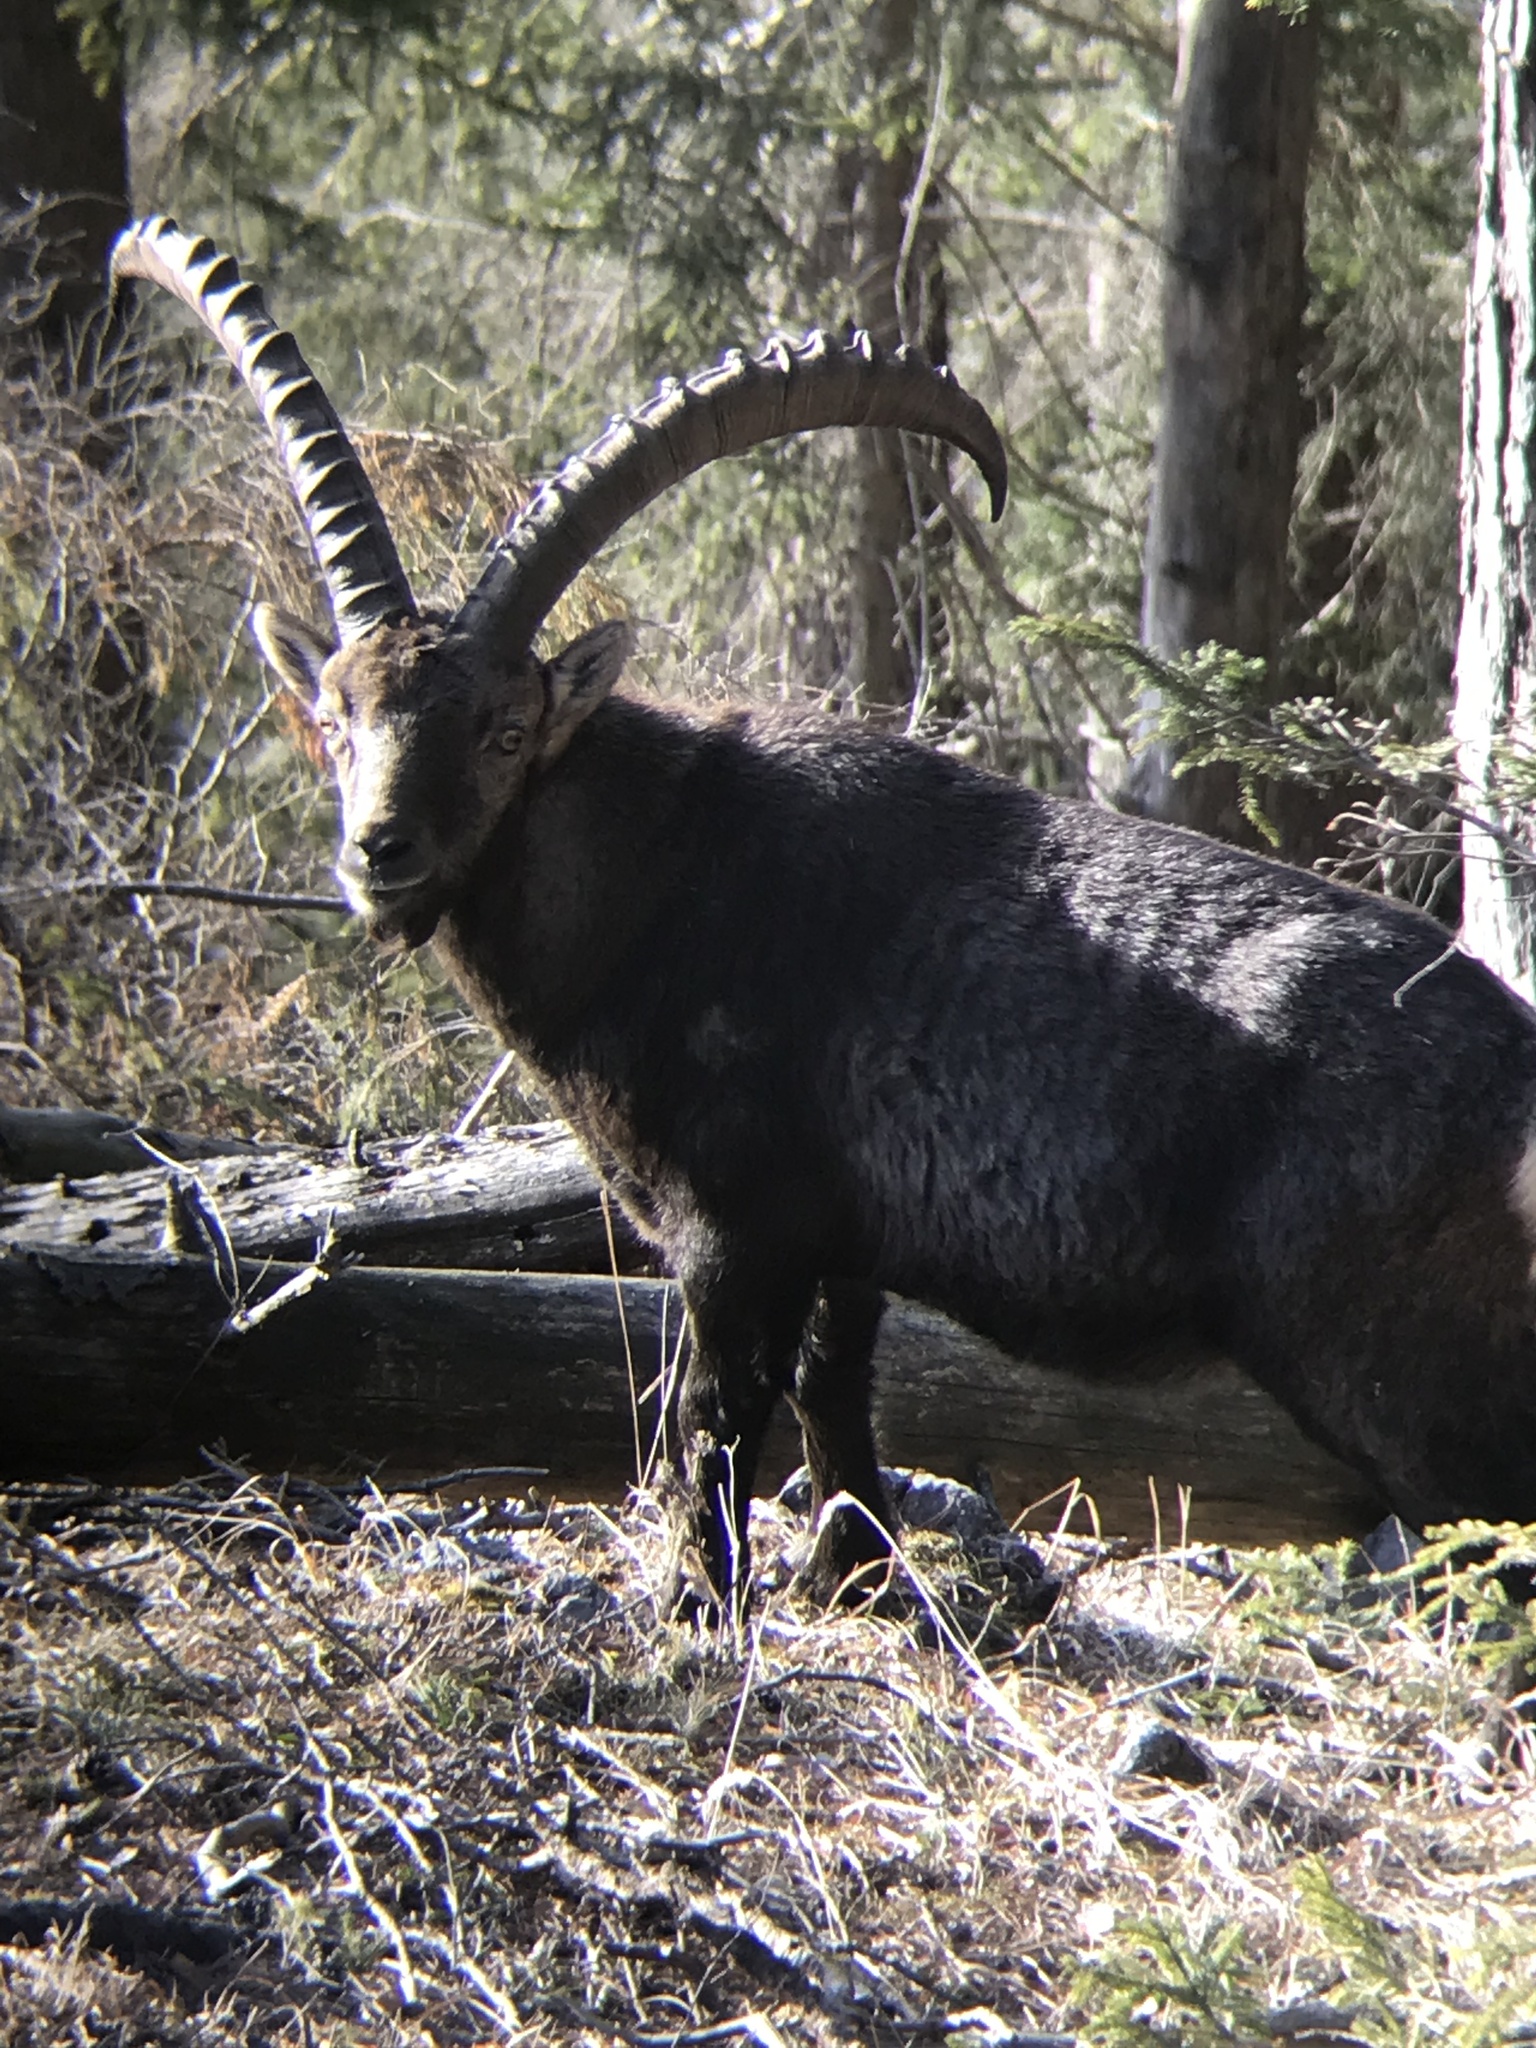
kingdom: Animalia
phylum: Chordata
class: Mammalia
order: Artiodactyla
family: Bovidae
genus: Capra
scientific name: Capra ibex
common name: Alpine ibex
